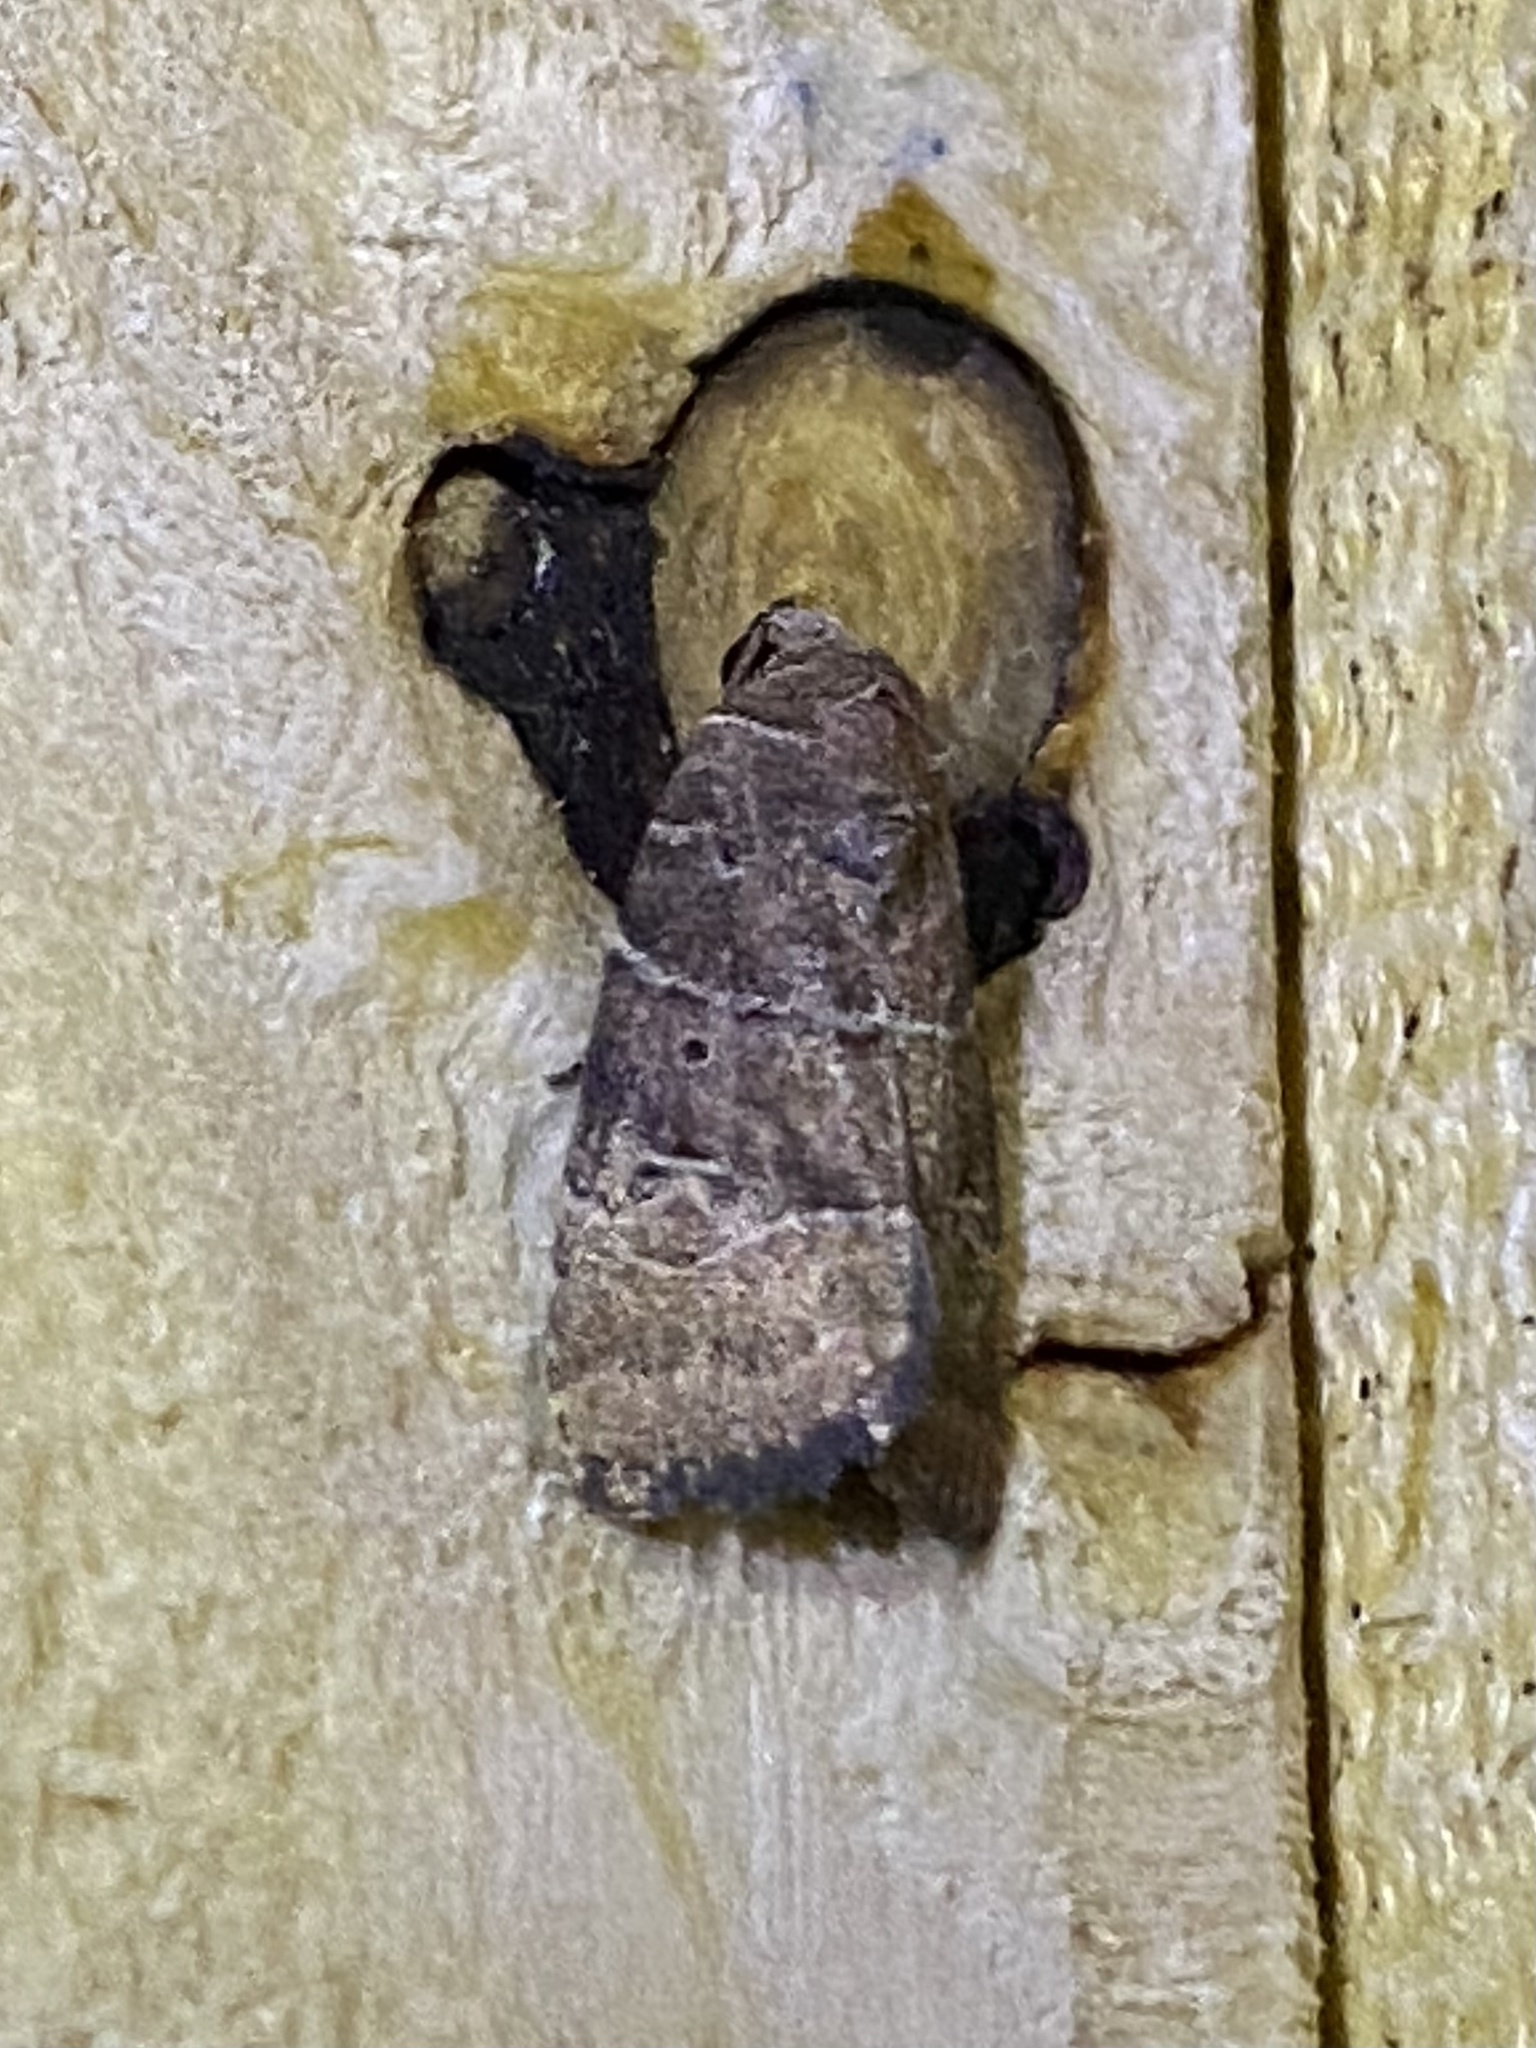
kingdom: Animalia
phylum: Arthropoda
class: Insecta
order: Lepidoptera
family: Noctuidae
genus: Elaphria
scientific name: Elaphria grata
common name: Grateful midget moth
